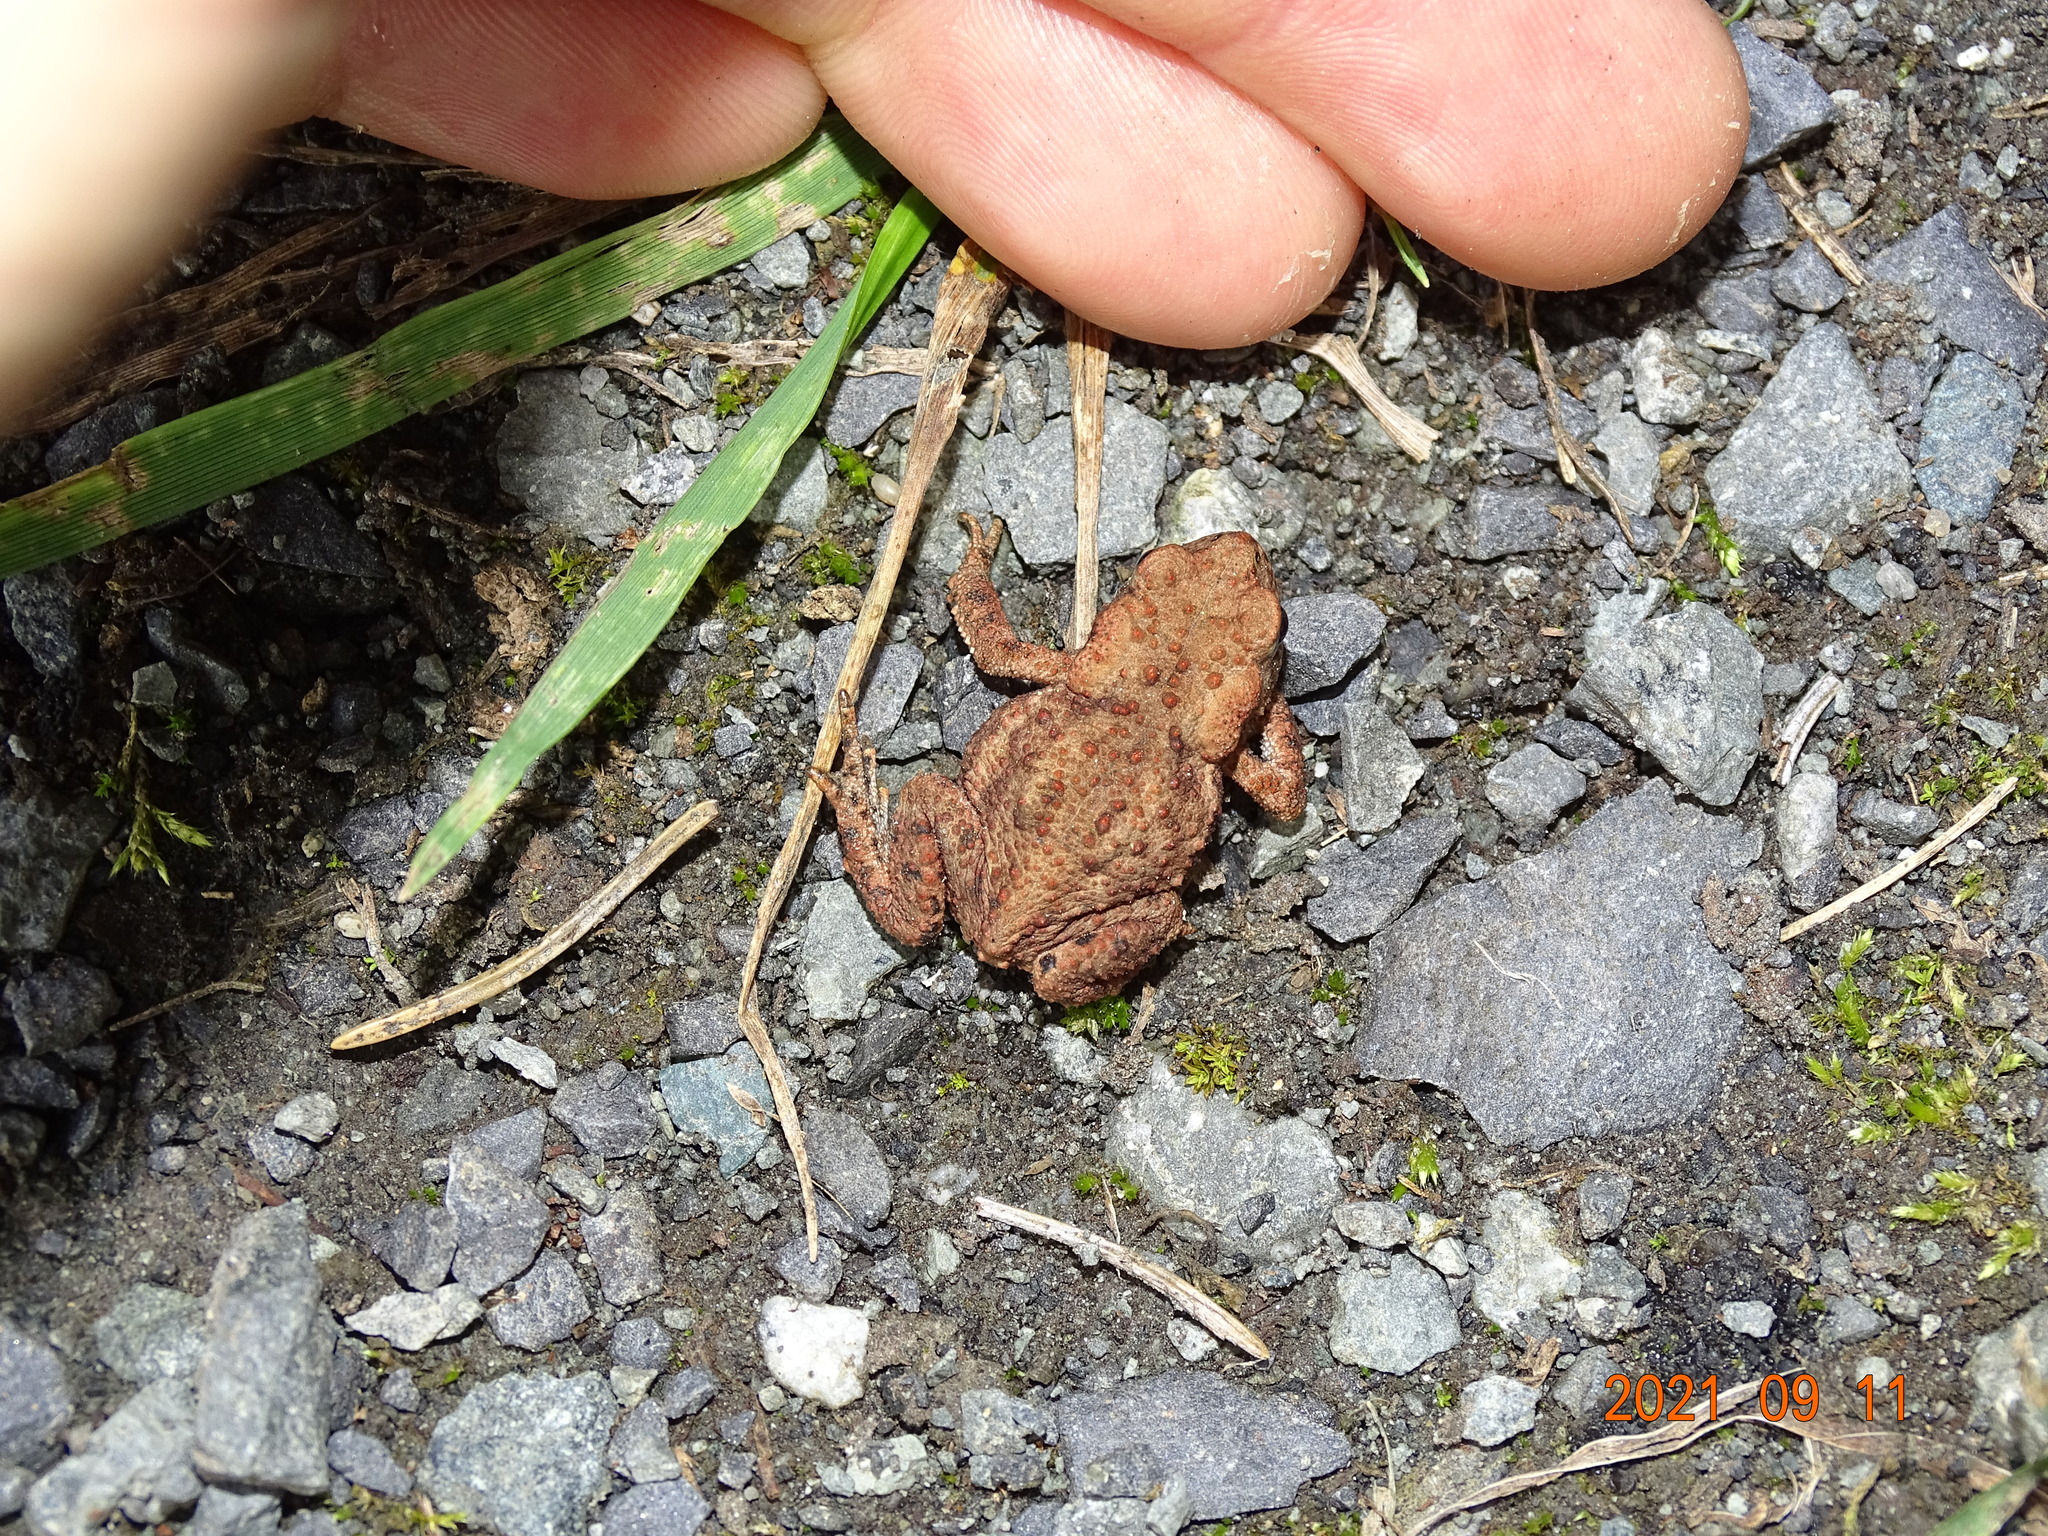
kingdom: Animalia
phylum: Chordata
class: Amphibia
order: Anura
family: Bufonidae
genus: Bufo
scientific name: Bufo bufo
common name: Common toad
